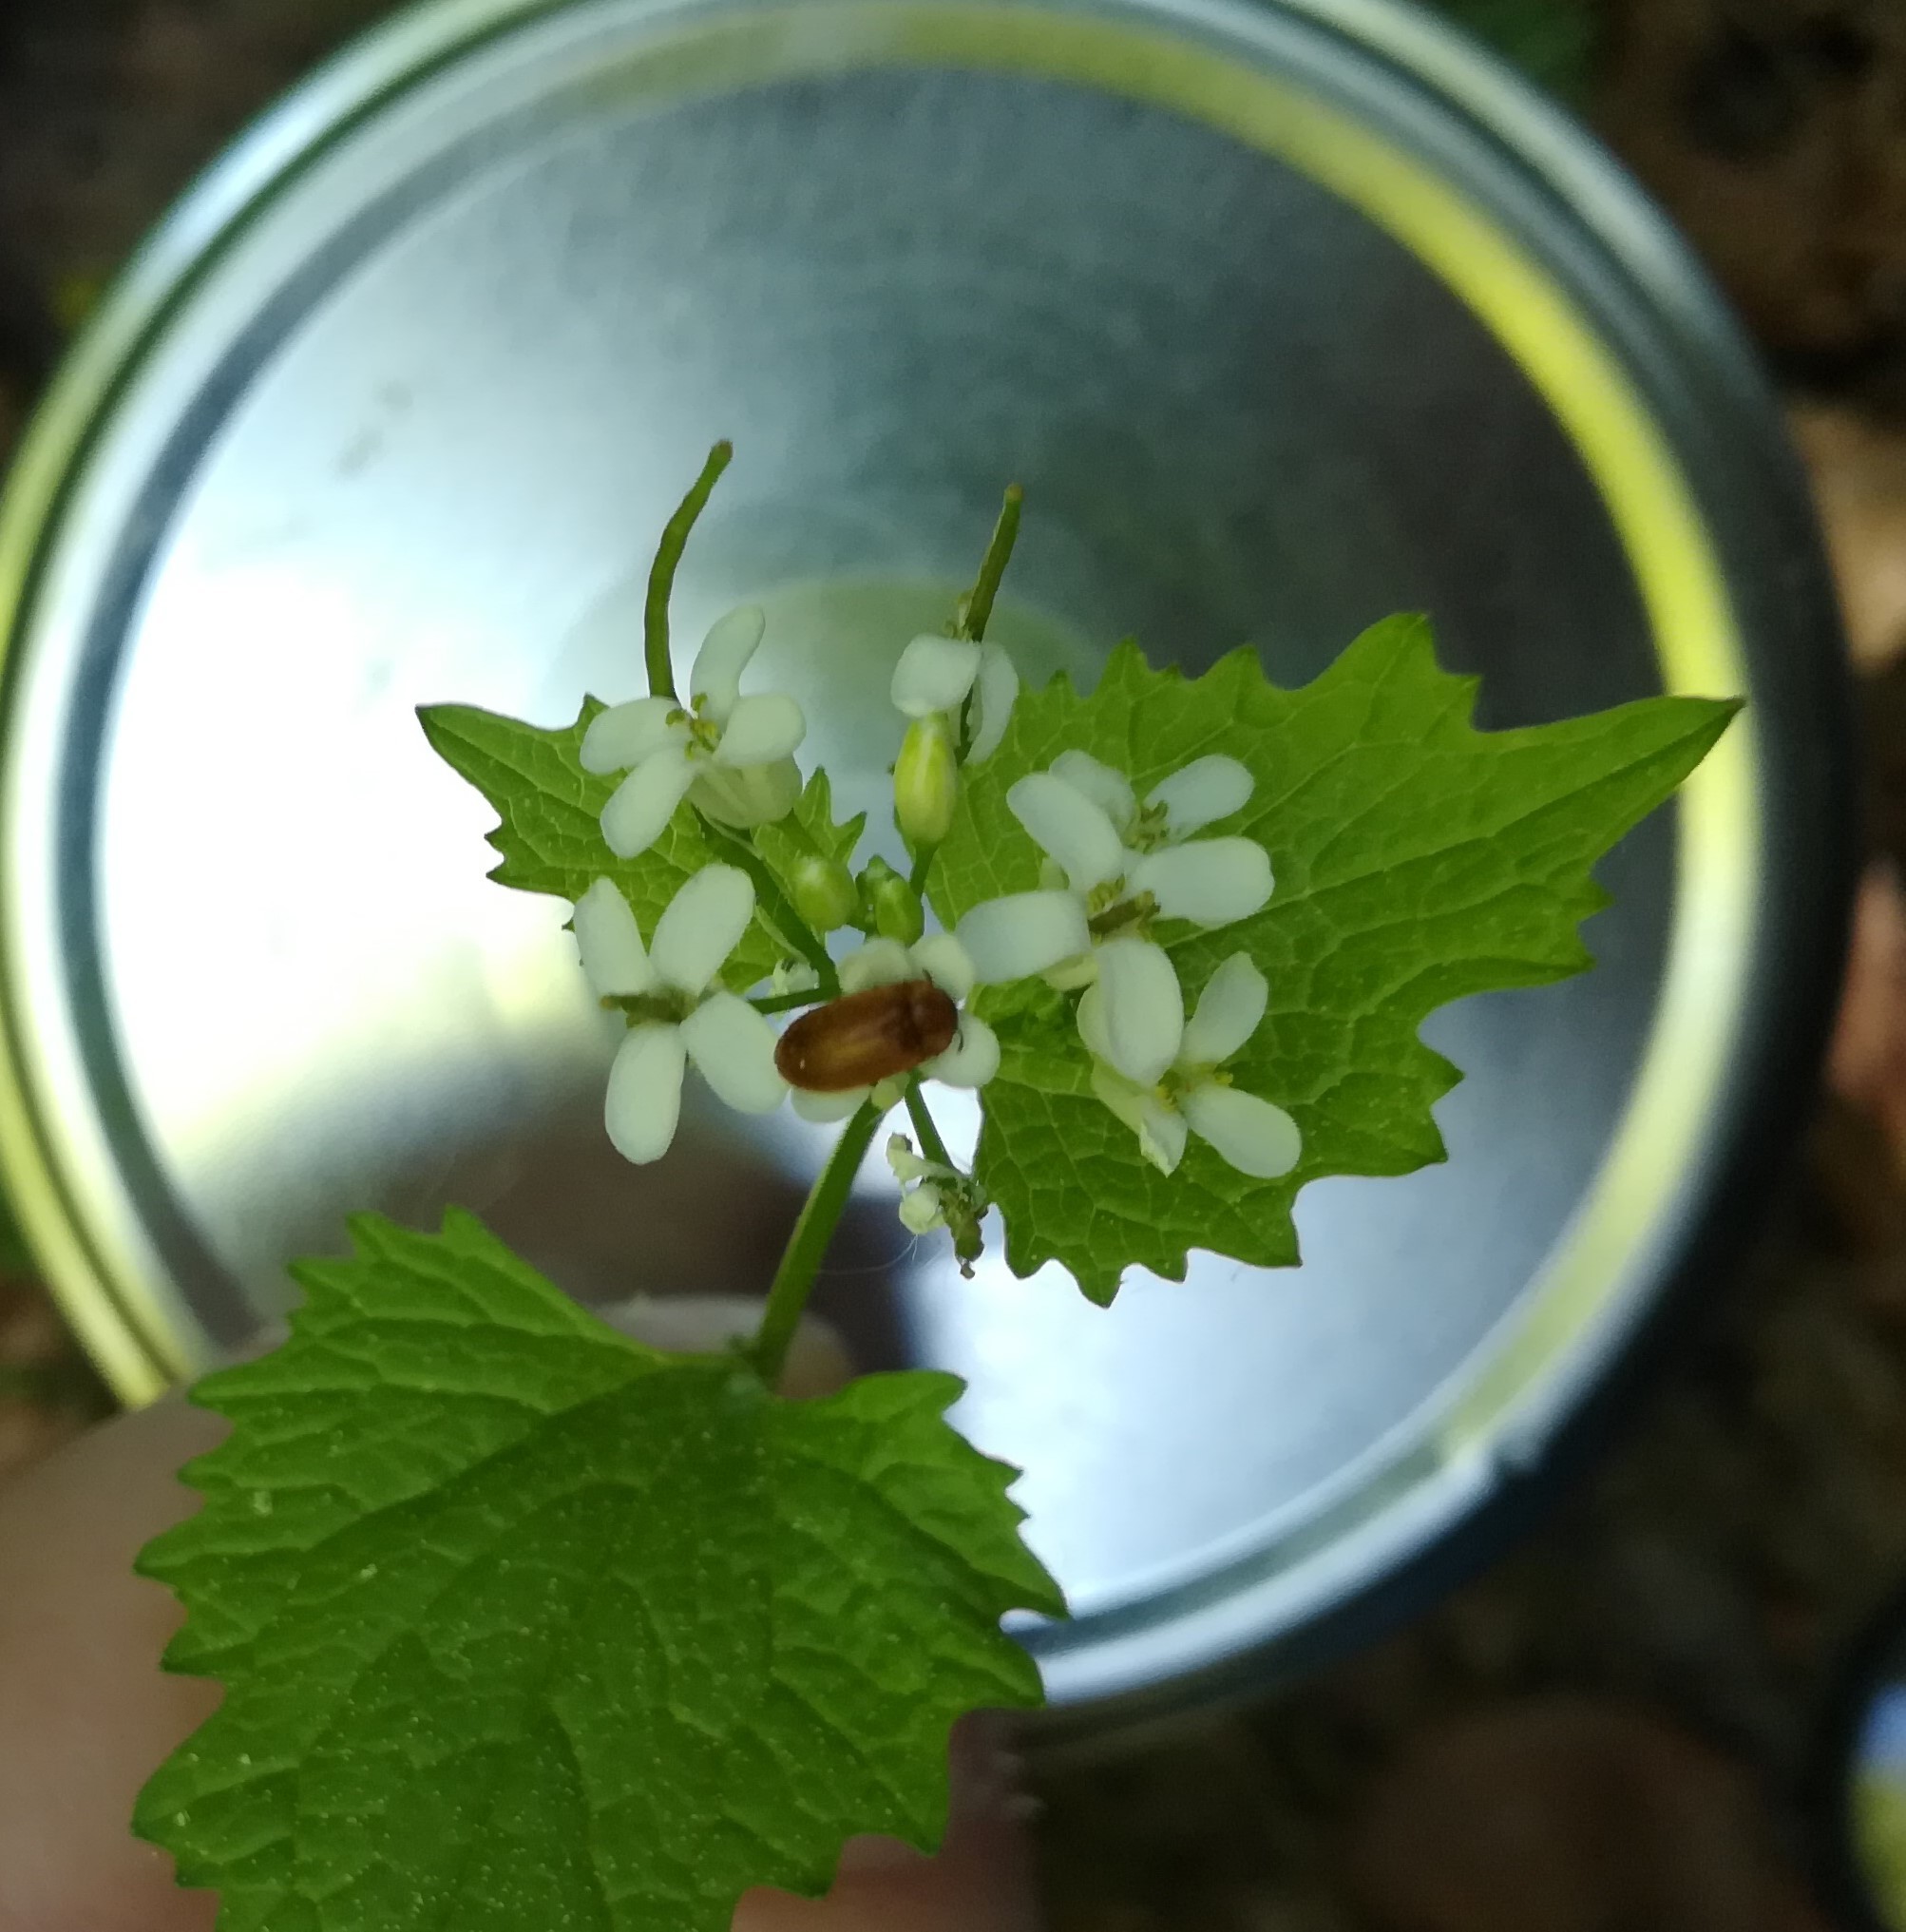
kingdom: Animalia
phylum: Arthropoda
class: Insecta
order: Coleoptera
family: Byturidae
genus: Byturus
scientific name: Byturus
